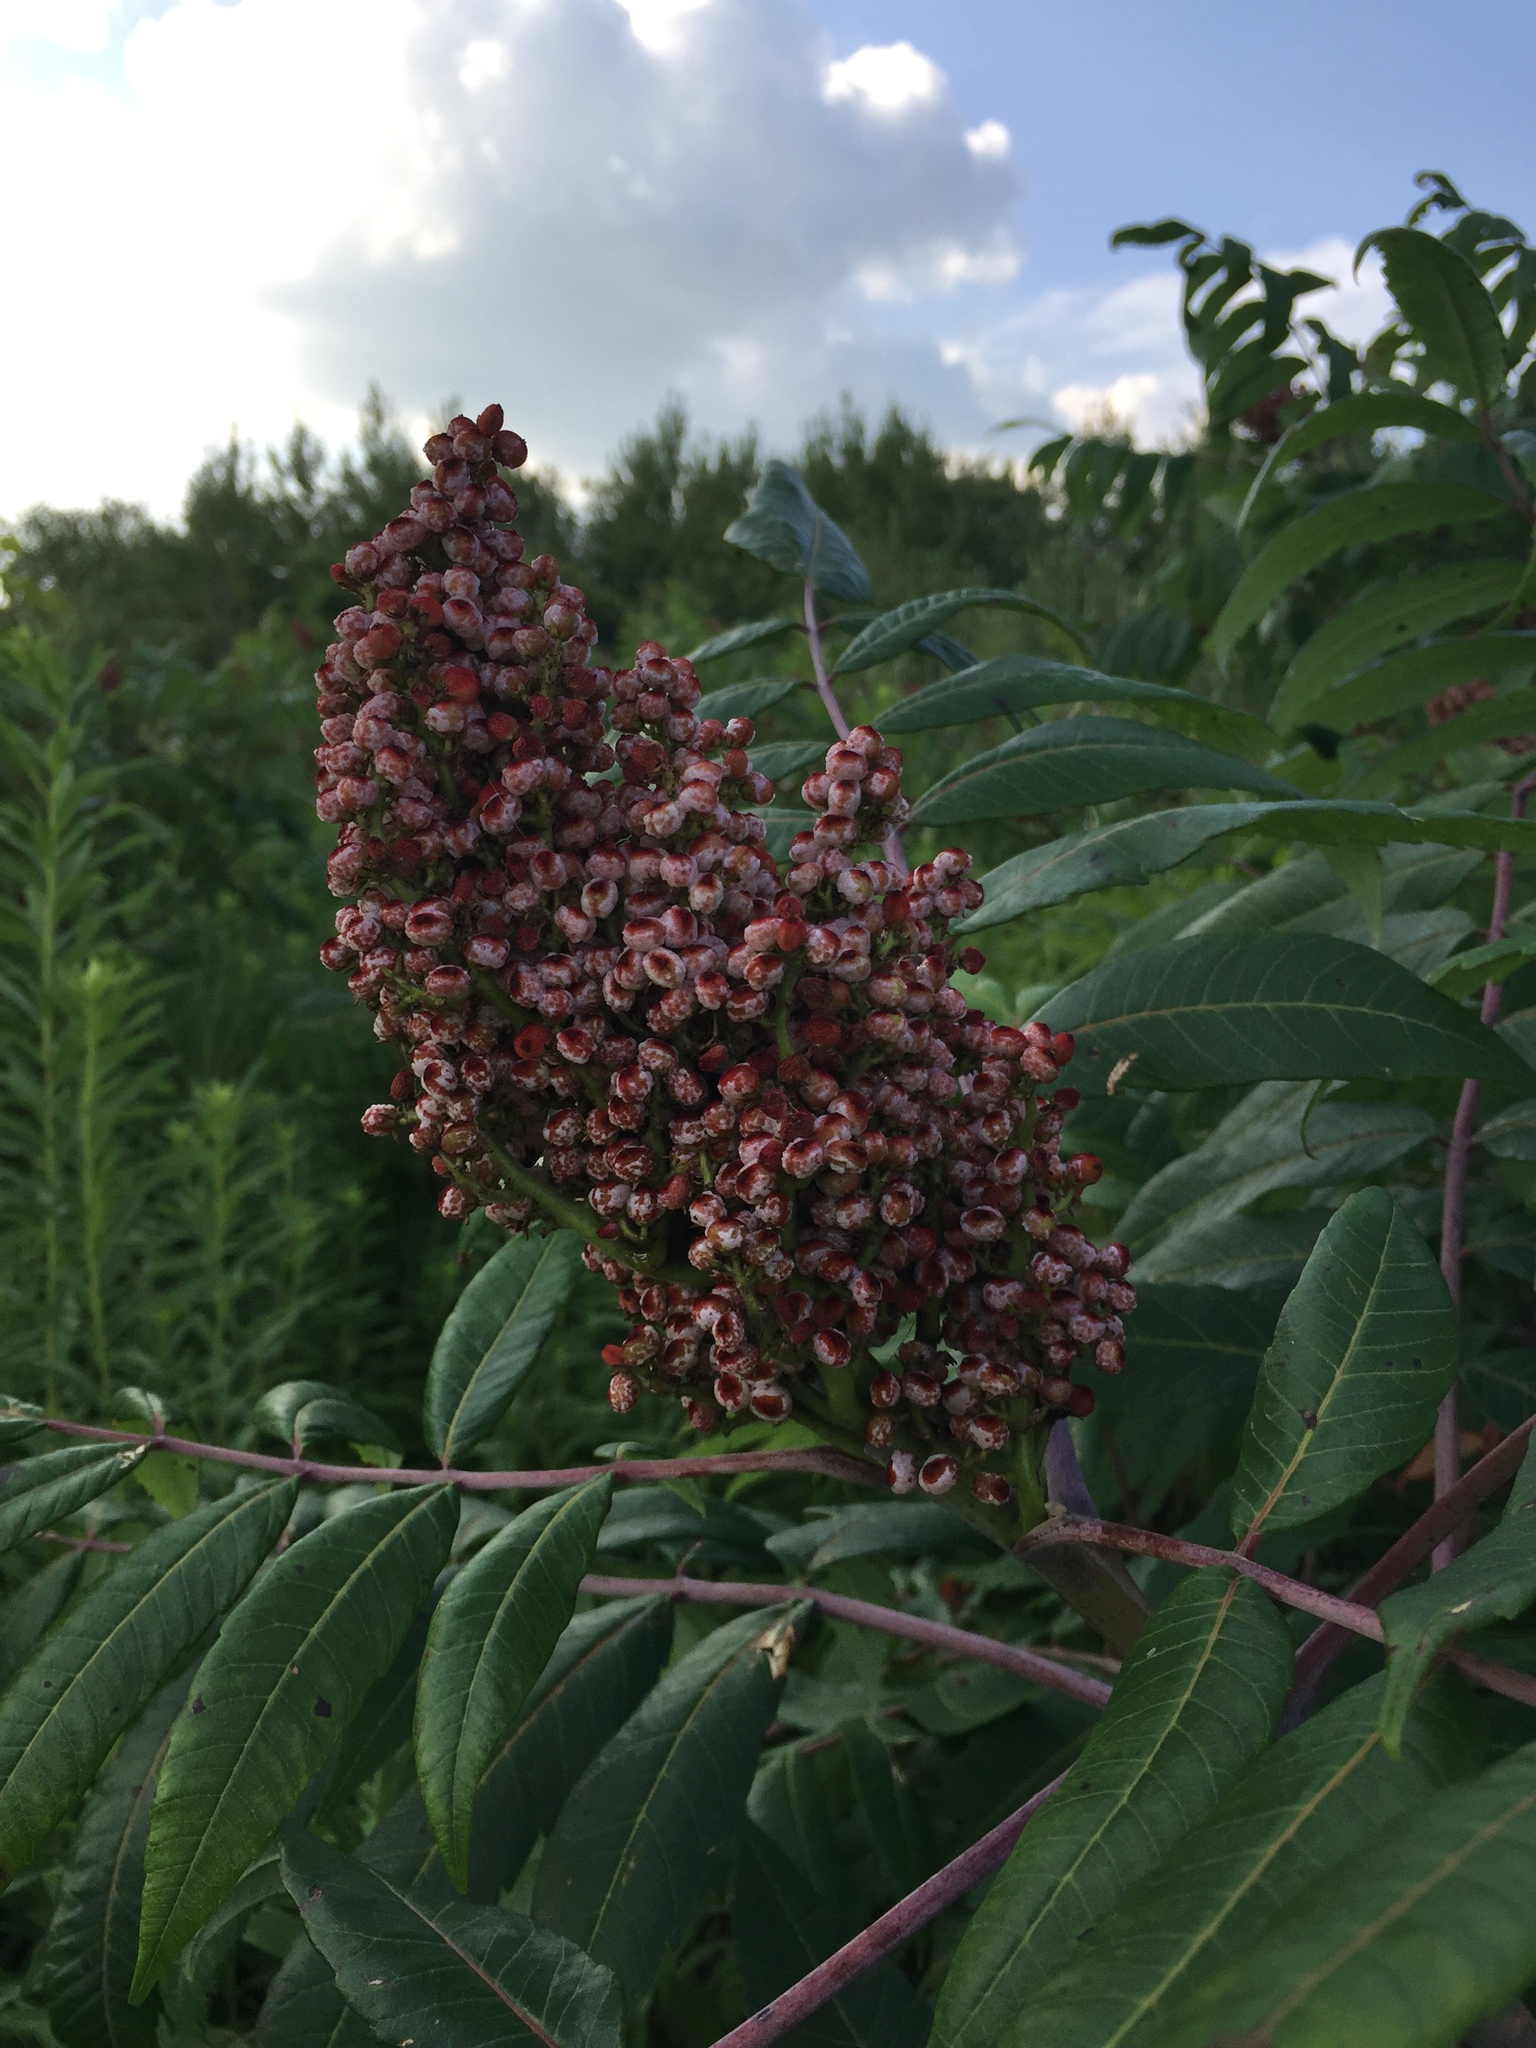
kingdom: Plantae
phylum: Tracheophyta
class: Magnoliopsida
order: Sapindales
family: Anacardiaceae
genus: Rhus
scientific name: Rhus glabra
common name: Scarlet sumac
